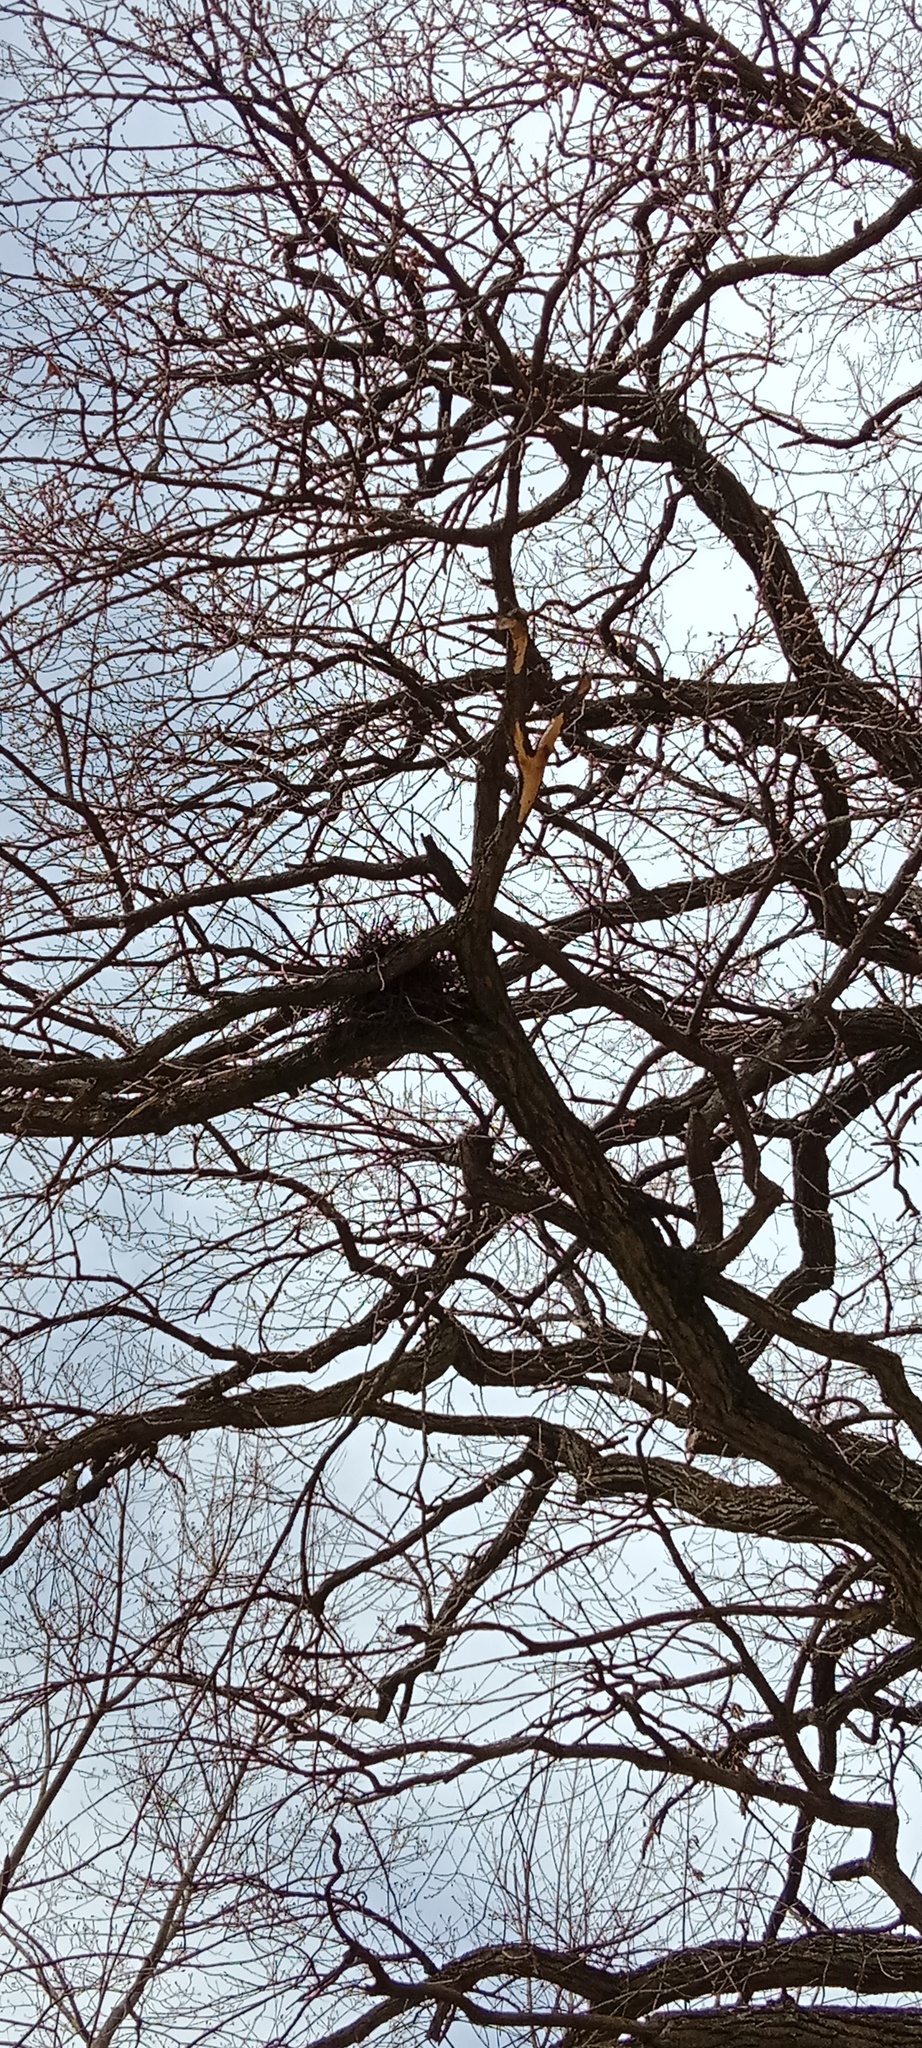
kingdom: Animalia
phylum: Chordata
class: Aves
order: Columbiformes
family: Columbidae
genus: Columba
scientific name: Columba palumbus
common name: Common wood pigeon
